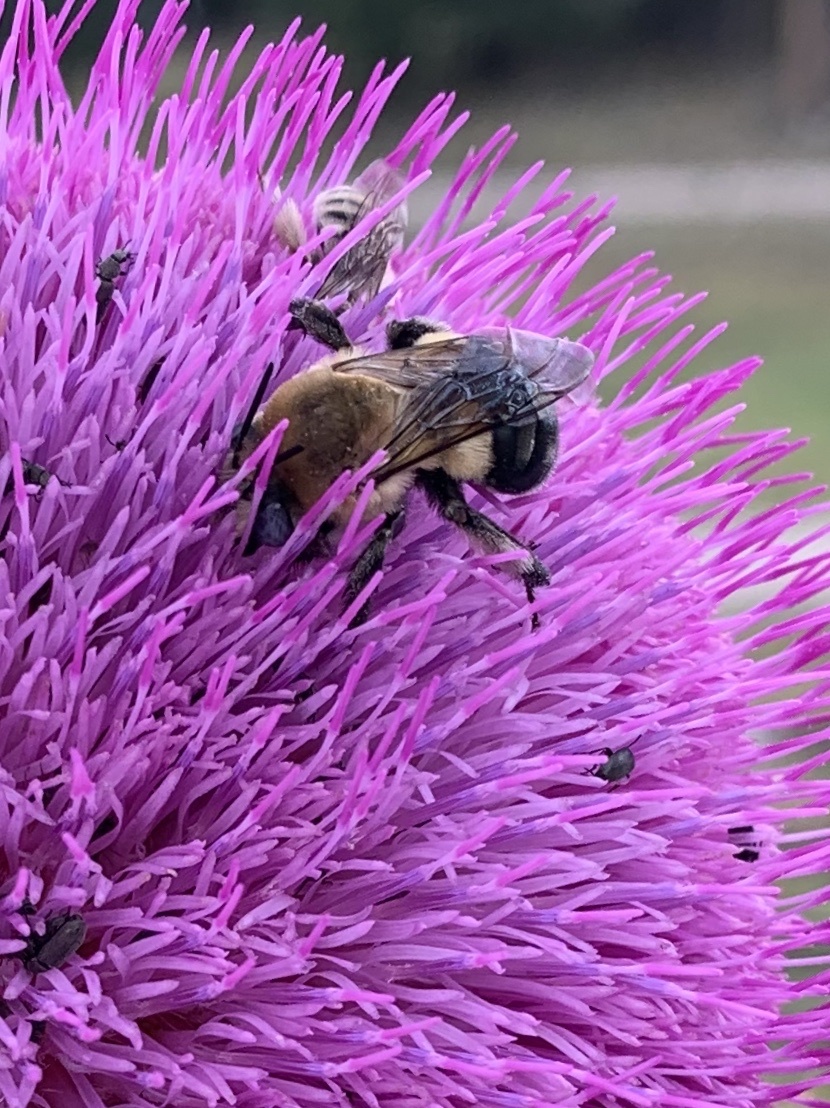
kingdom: Animalia
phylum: Arthropoda
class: Insecta
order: Hymenoptera
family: Apidae
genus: Anthophora
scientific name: Anthophora montana
